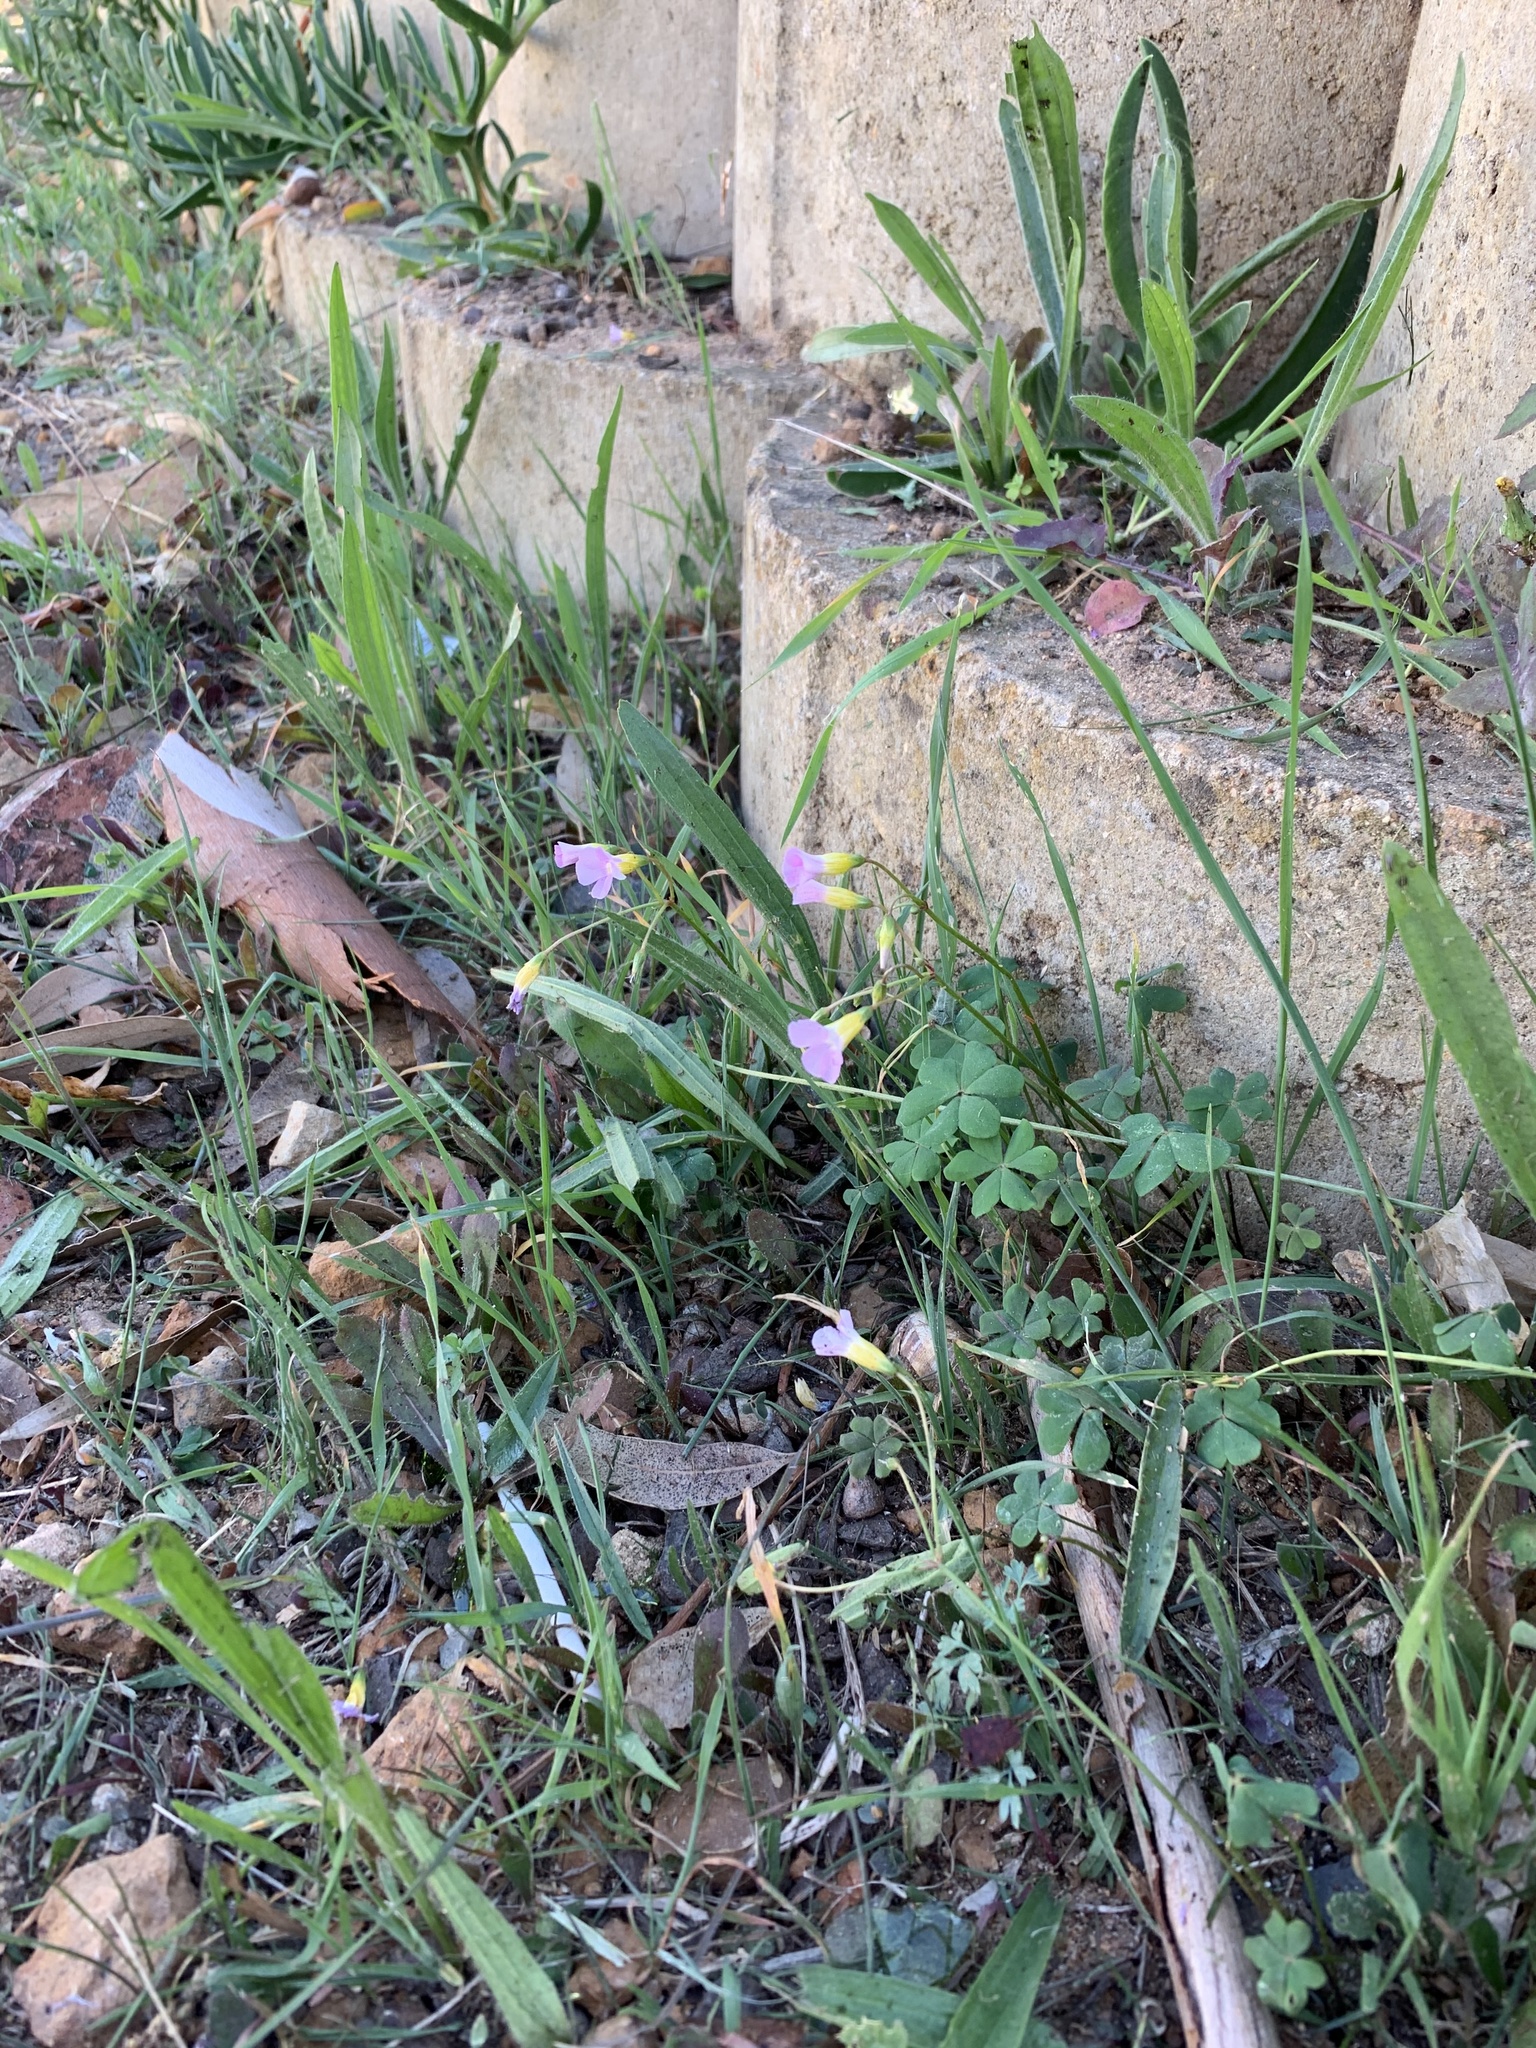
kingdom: Plantae
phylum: Tracheophyta
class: Magnoliopsida
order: Oxalidales
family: Oxalidaceae
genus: Oxalis
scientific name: Oxalis caprina
